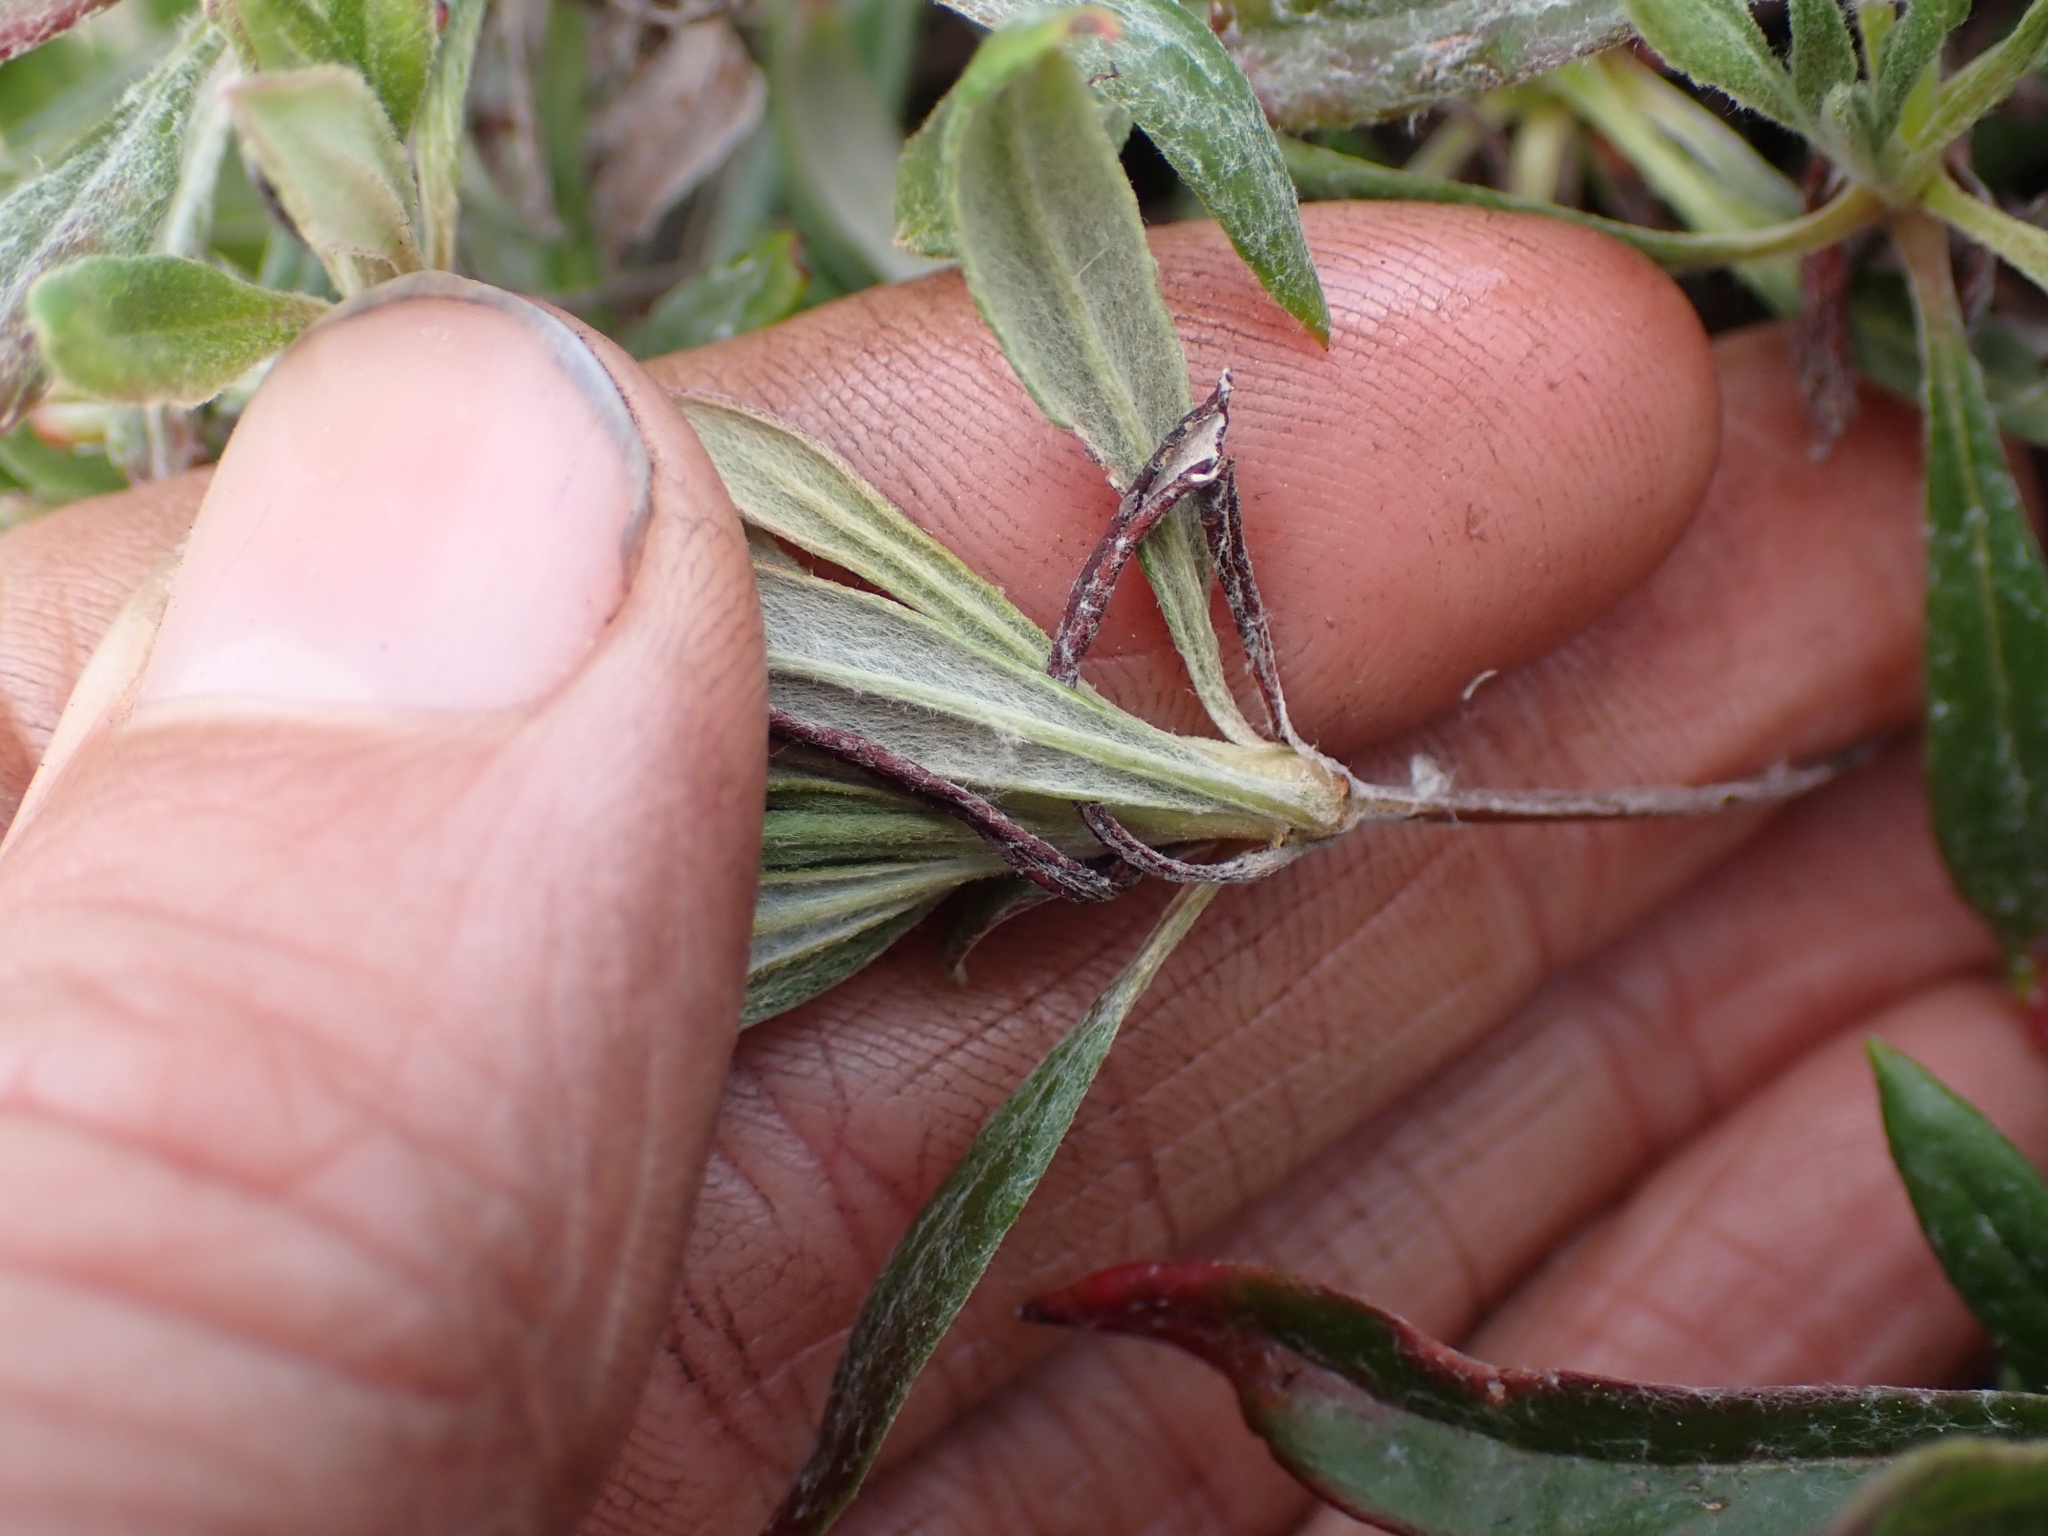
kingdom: Plantae
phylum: Tracheophyta
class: Magnoliopsida
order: Caryophyllales
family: Polygonaceae
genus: Eriogonum
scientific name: Eriogonum heracleoides
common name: Wyeth's buckwheat
